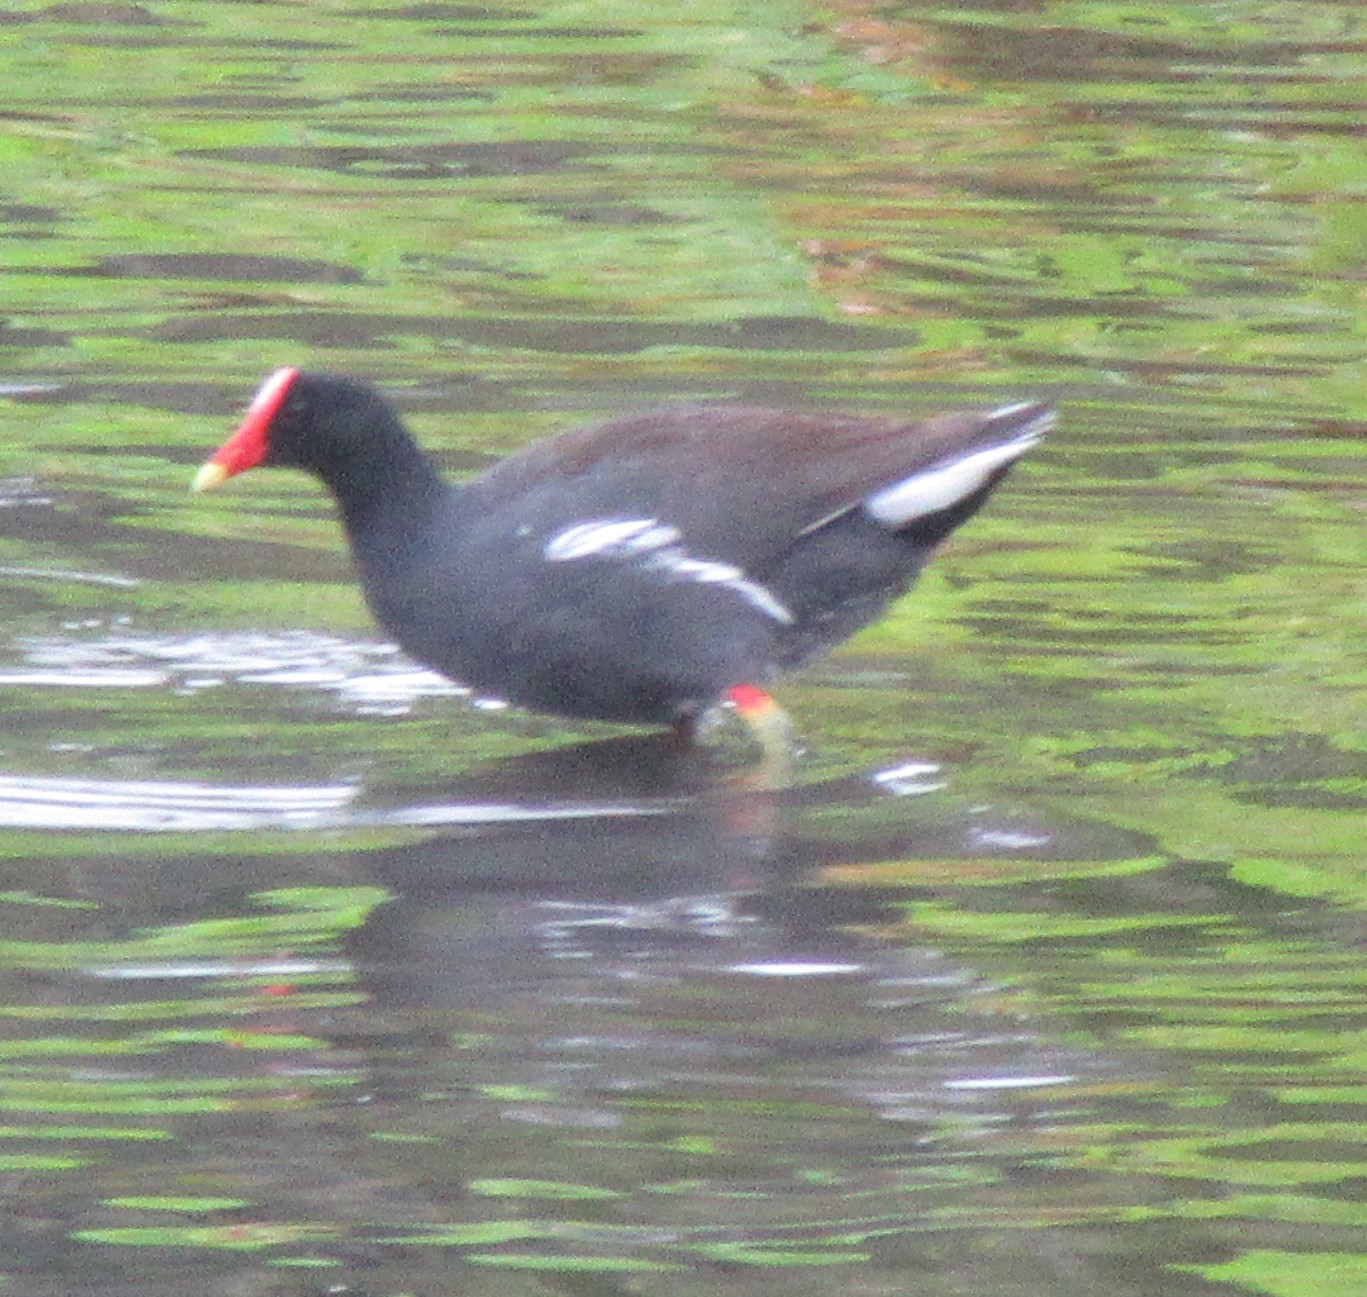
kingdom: Animalia
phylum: Chordata
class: Aves
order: Gruiformes
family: Rallidae
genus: Gallinula
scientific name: Gallinula chloropus
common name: Common moorhen
